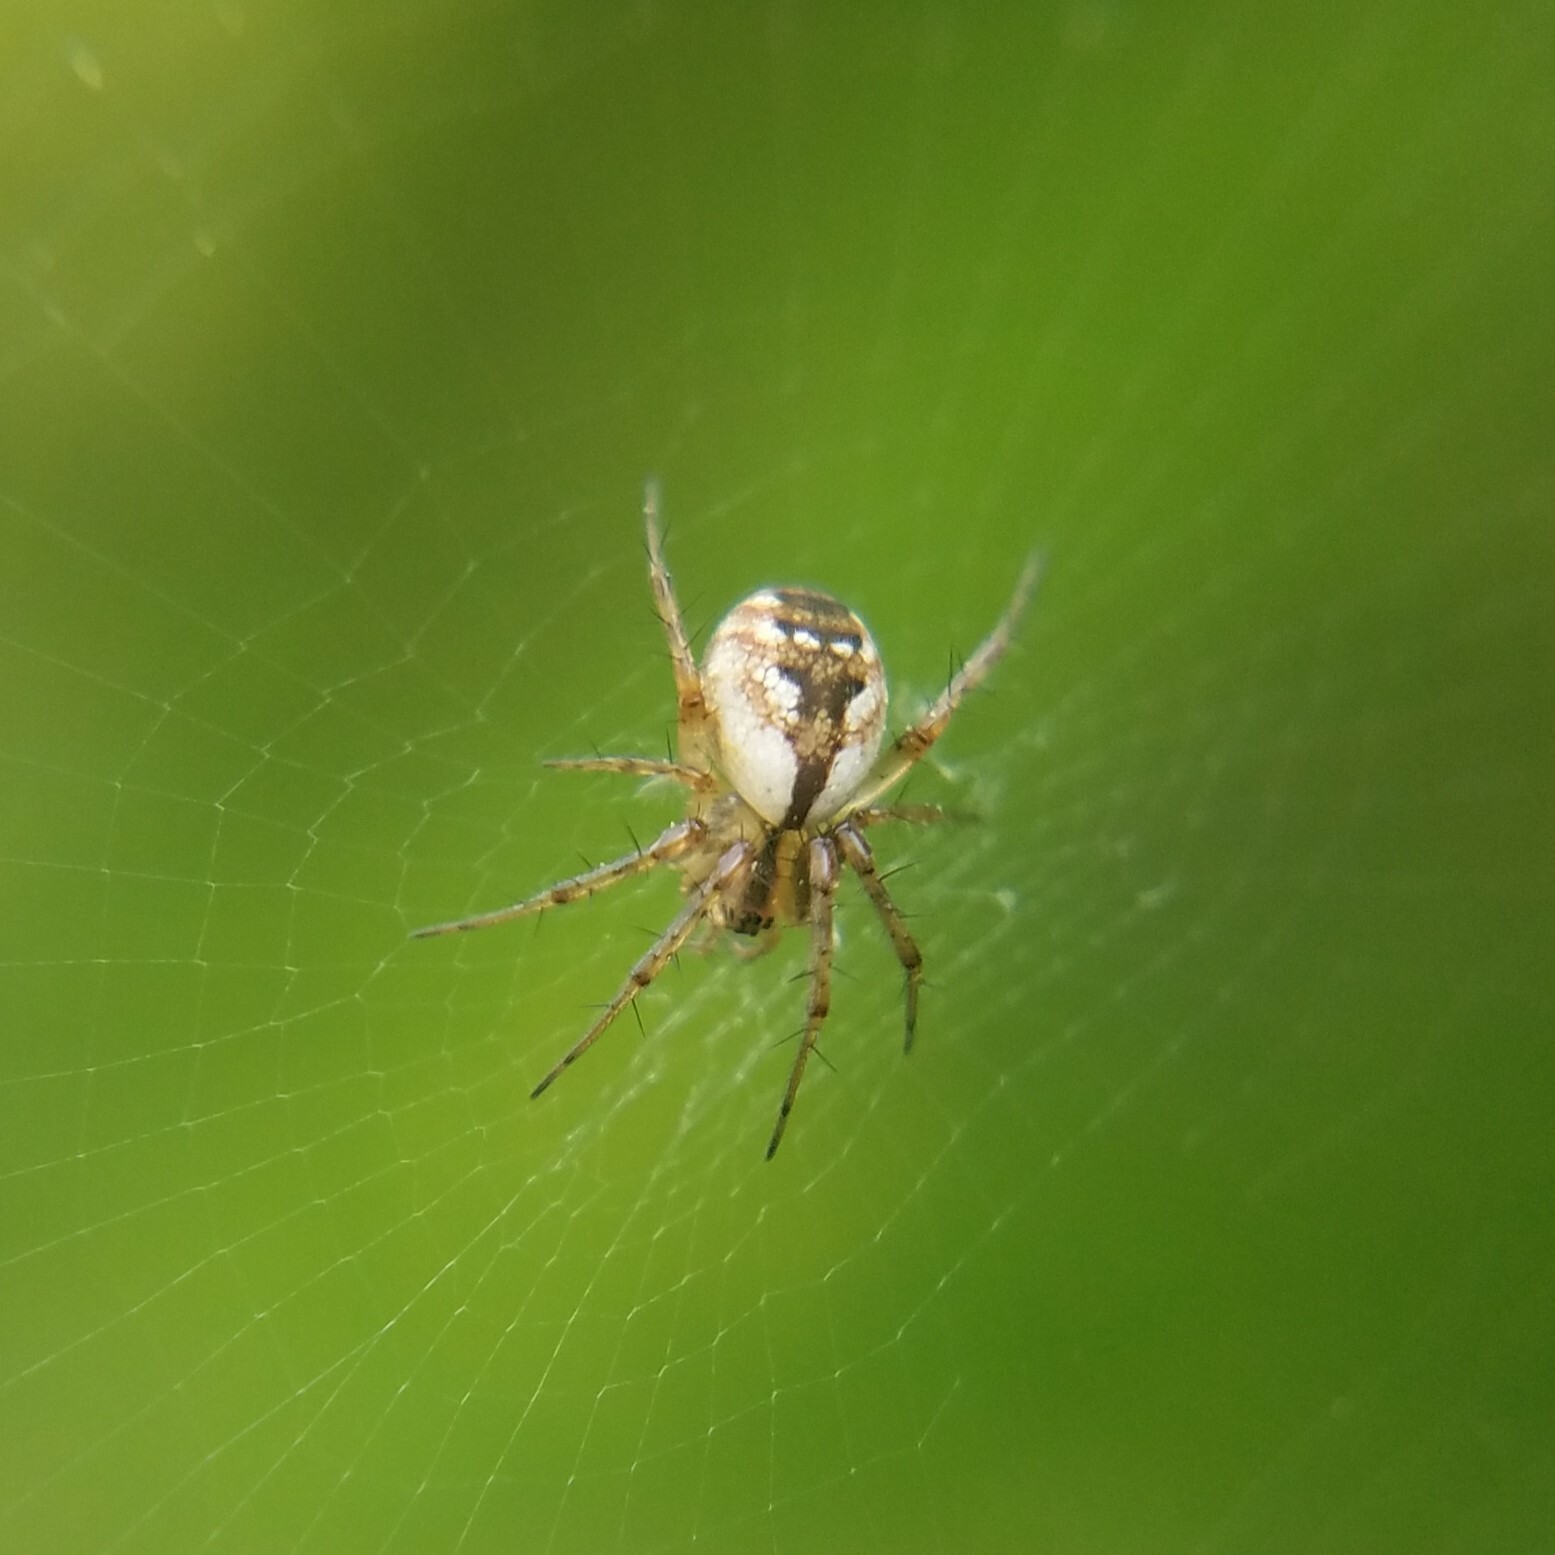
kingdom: Animalia
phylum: Arthropoda
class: Arachnida
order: Araneae
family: Araneidae
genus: Mangora
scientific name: Mangora placida
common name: Tuft-legged orbweaver
